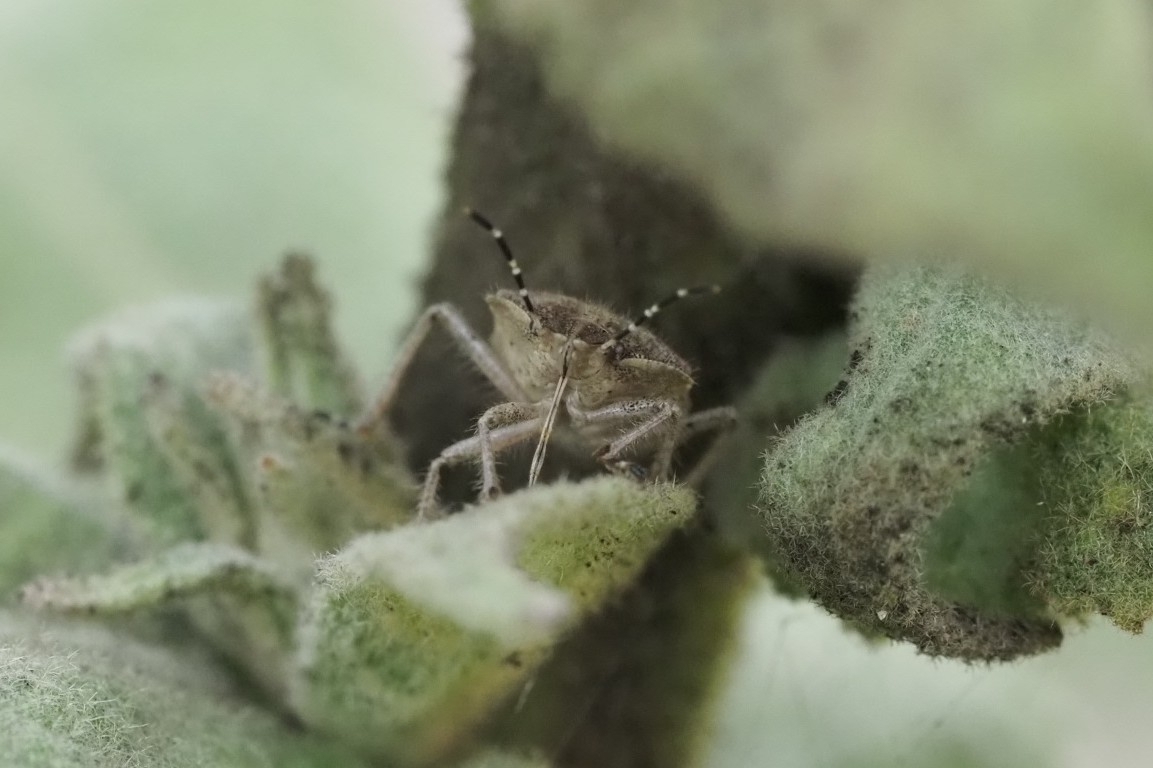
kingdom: Animalia
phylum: Arthropoda
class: Insecta
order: Hemiptera
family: Pentatomidae
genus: Dolycoris
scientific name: Dolycoris baccarum
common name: Sloe bug
